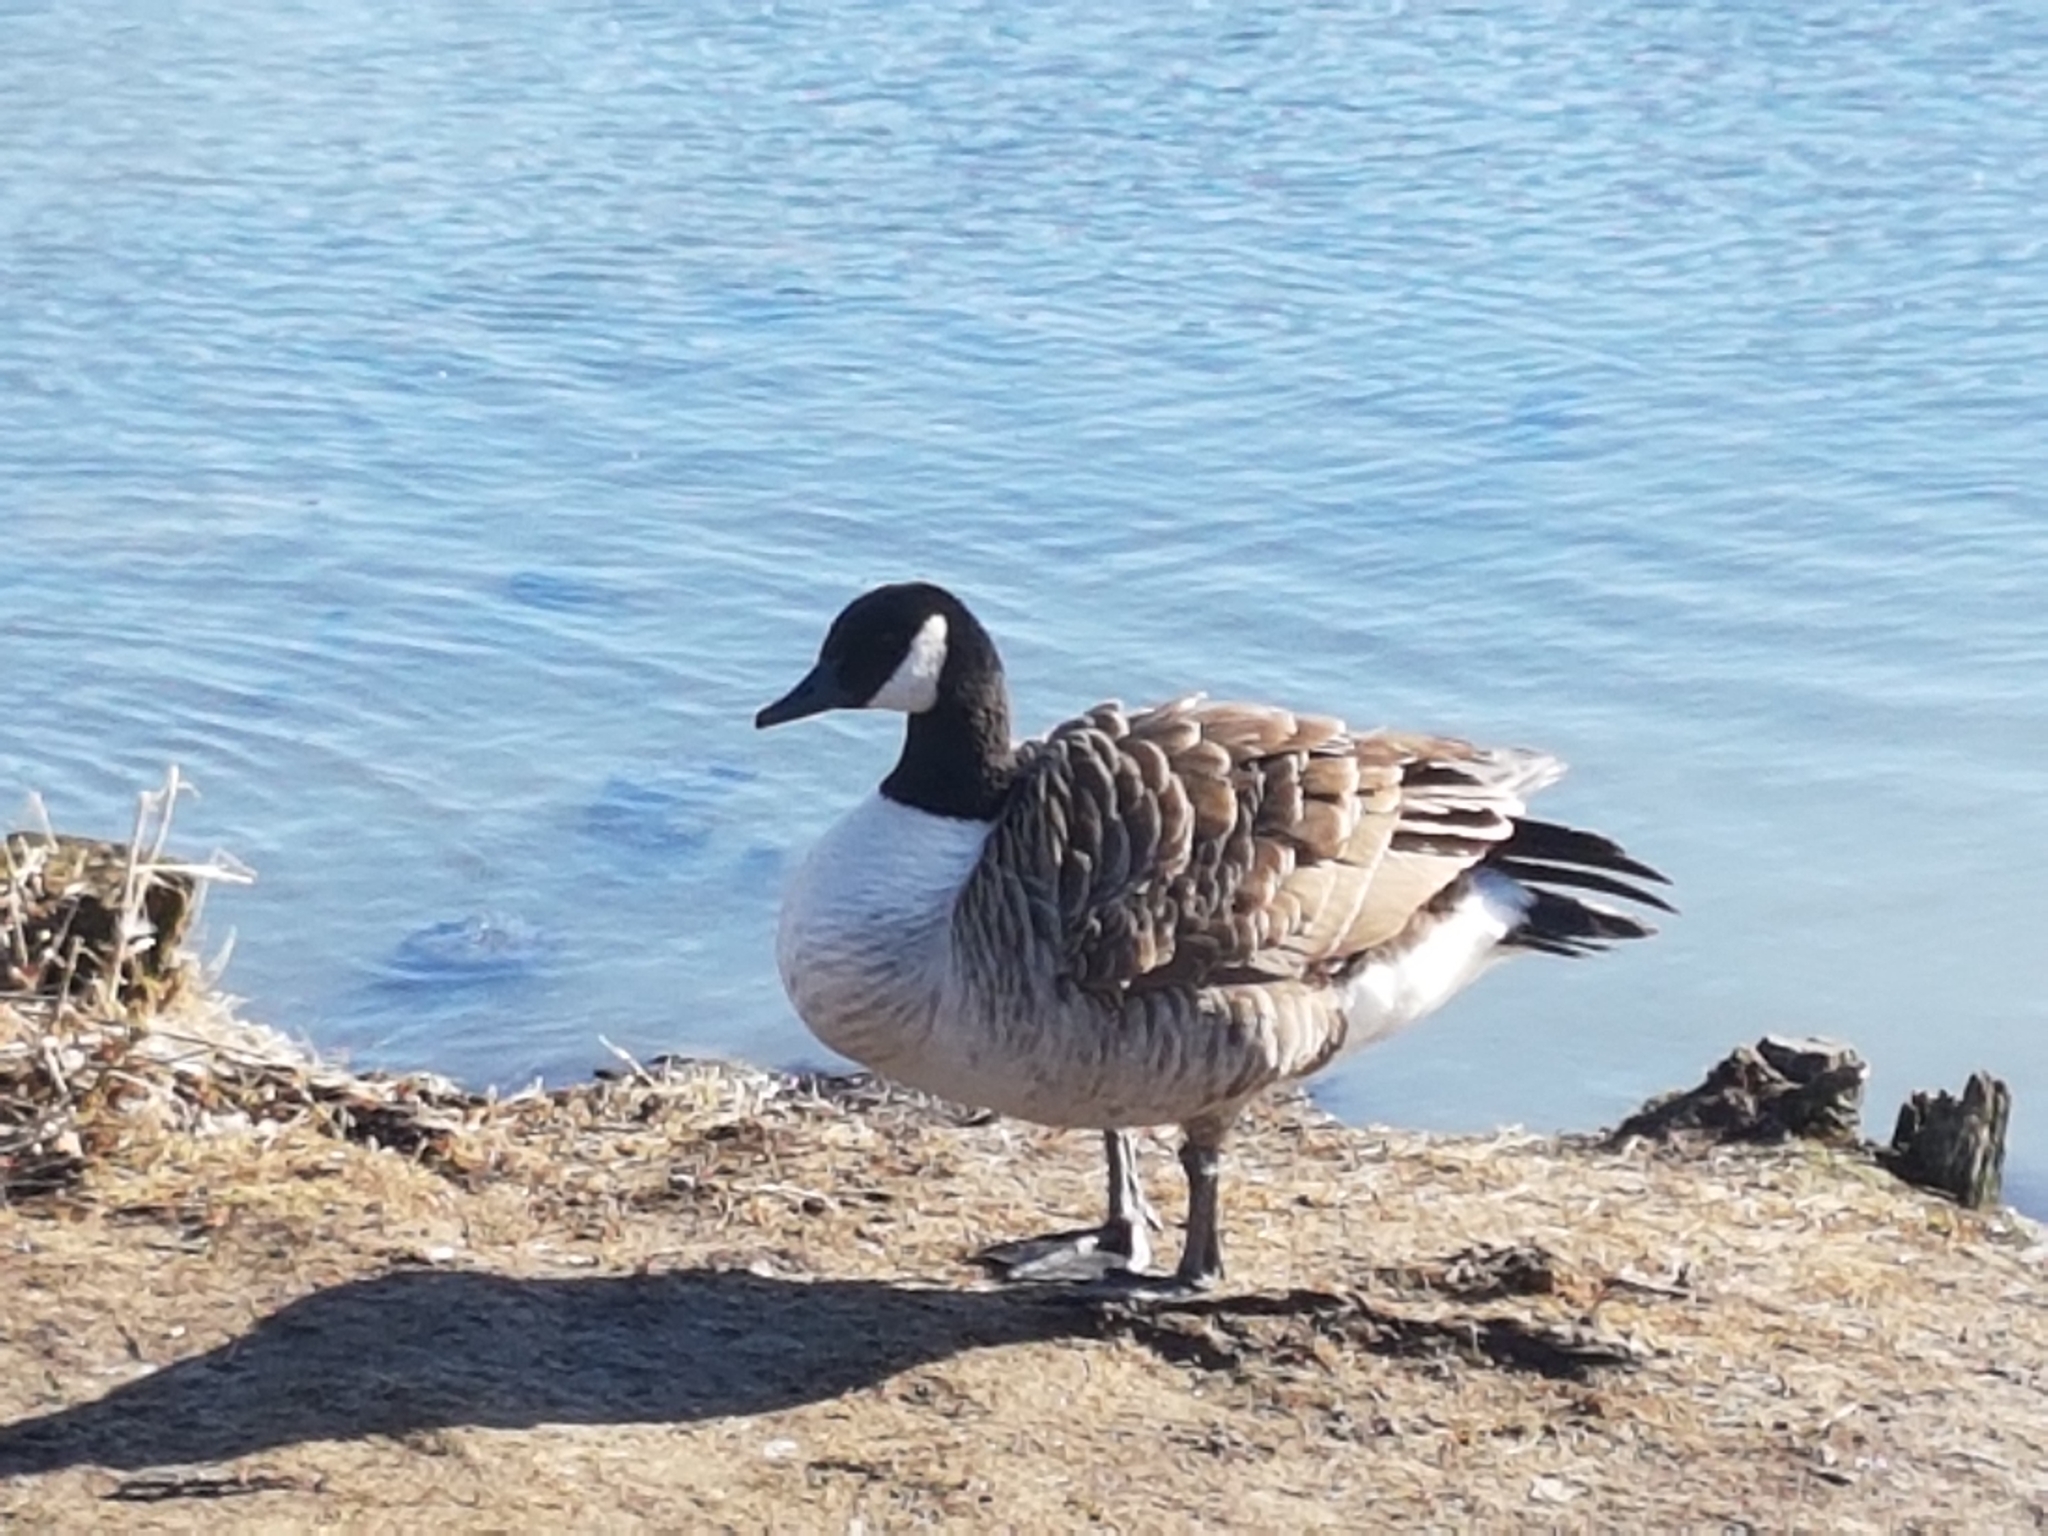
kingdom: Animalia
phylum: Chordata
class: Aves
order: Anseriformes
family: Anatidae
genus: Branta
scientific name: Branta canadensis
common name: Canada goose
